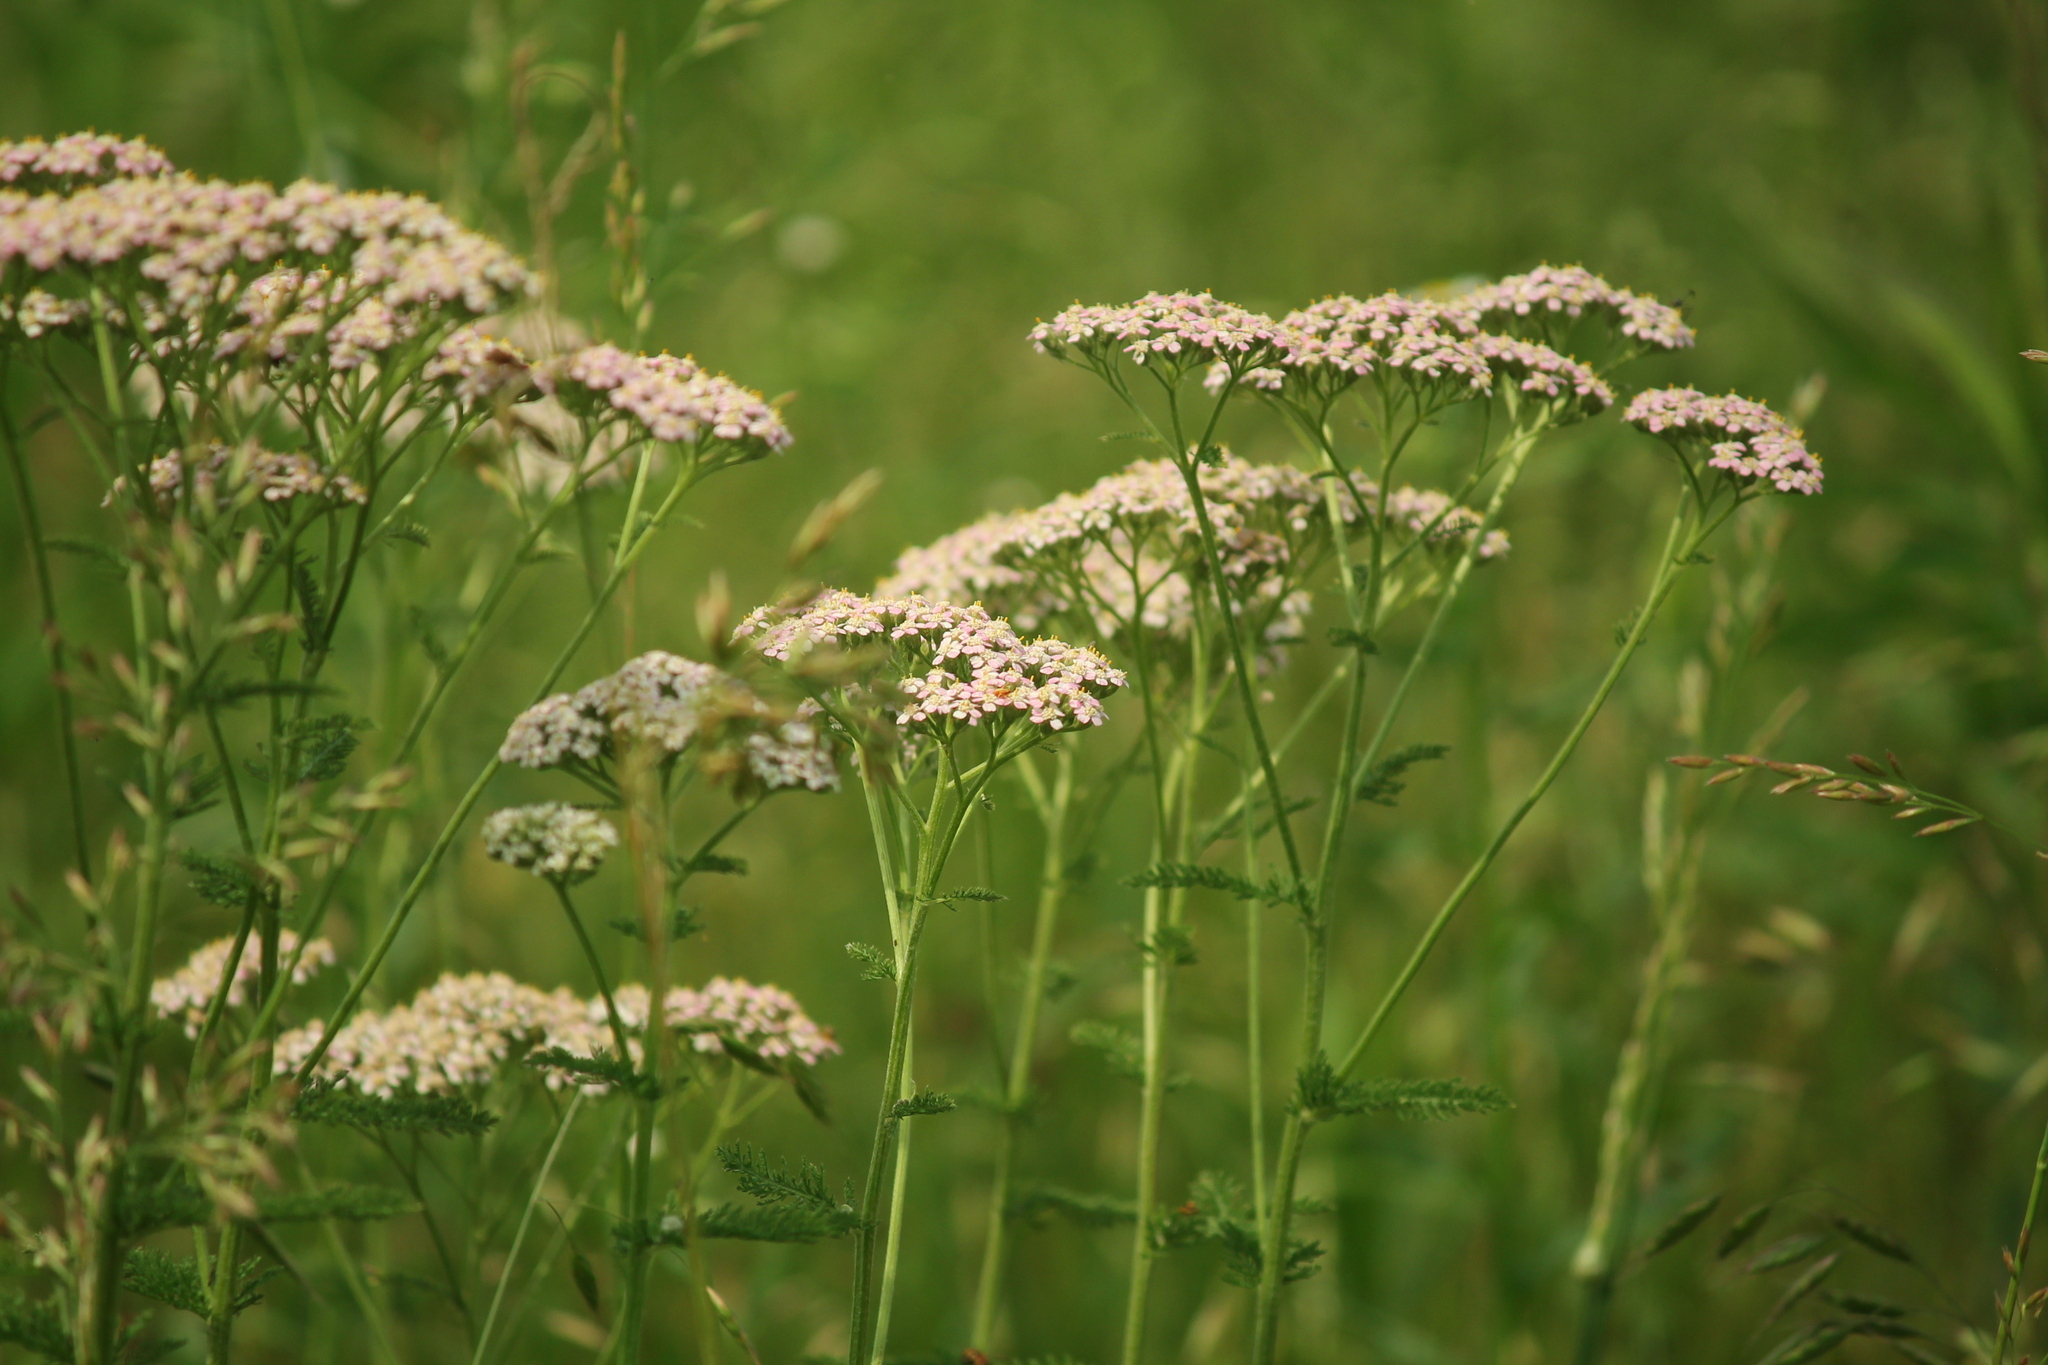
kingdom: Plantae
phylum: Tracheophyta
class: Magnoliopsida
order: Asterales
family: Asteraceae
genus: Achillea
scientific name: Achillea millefolium
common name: Yarrow
